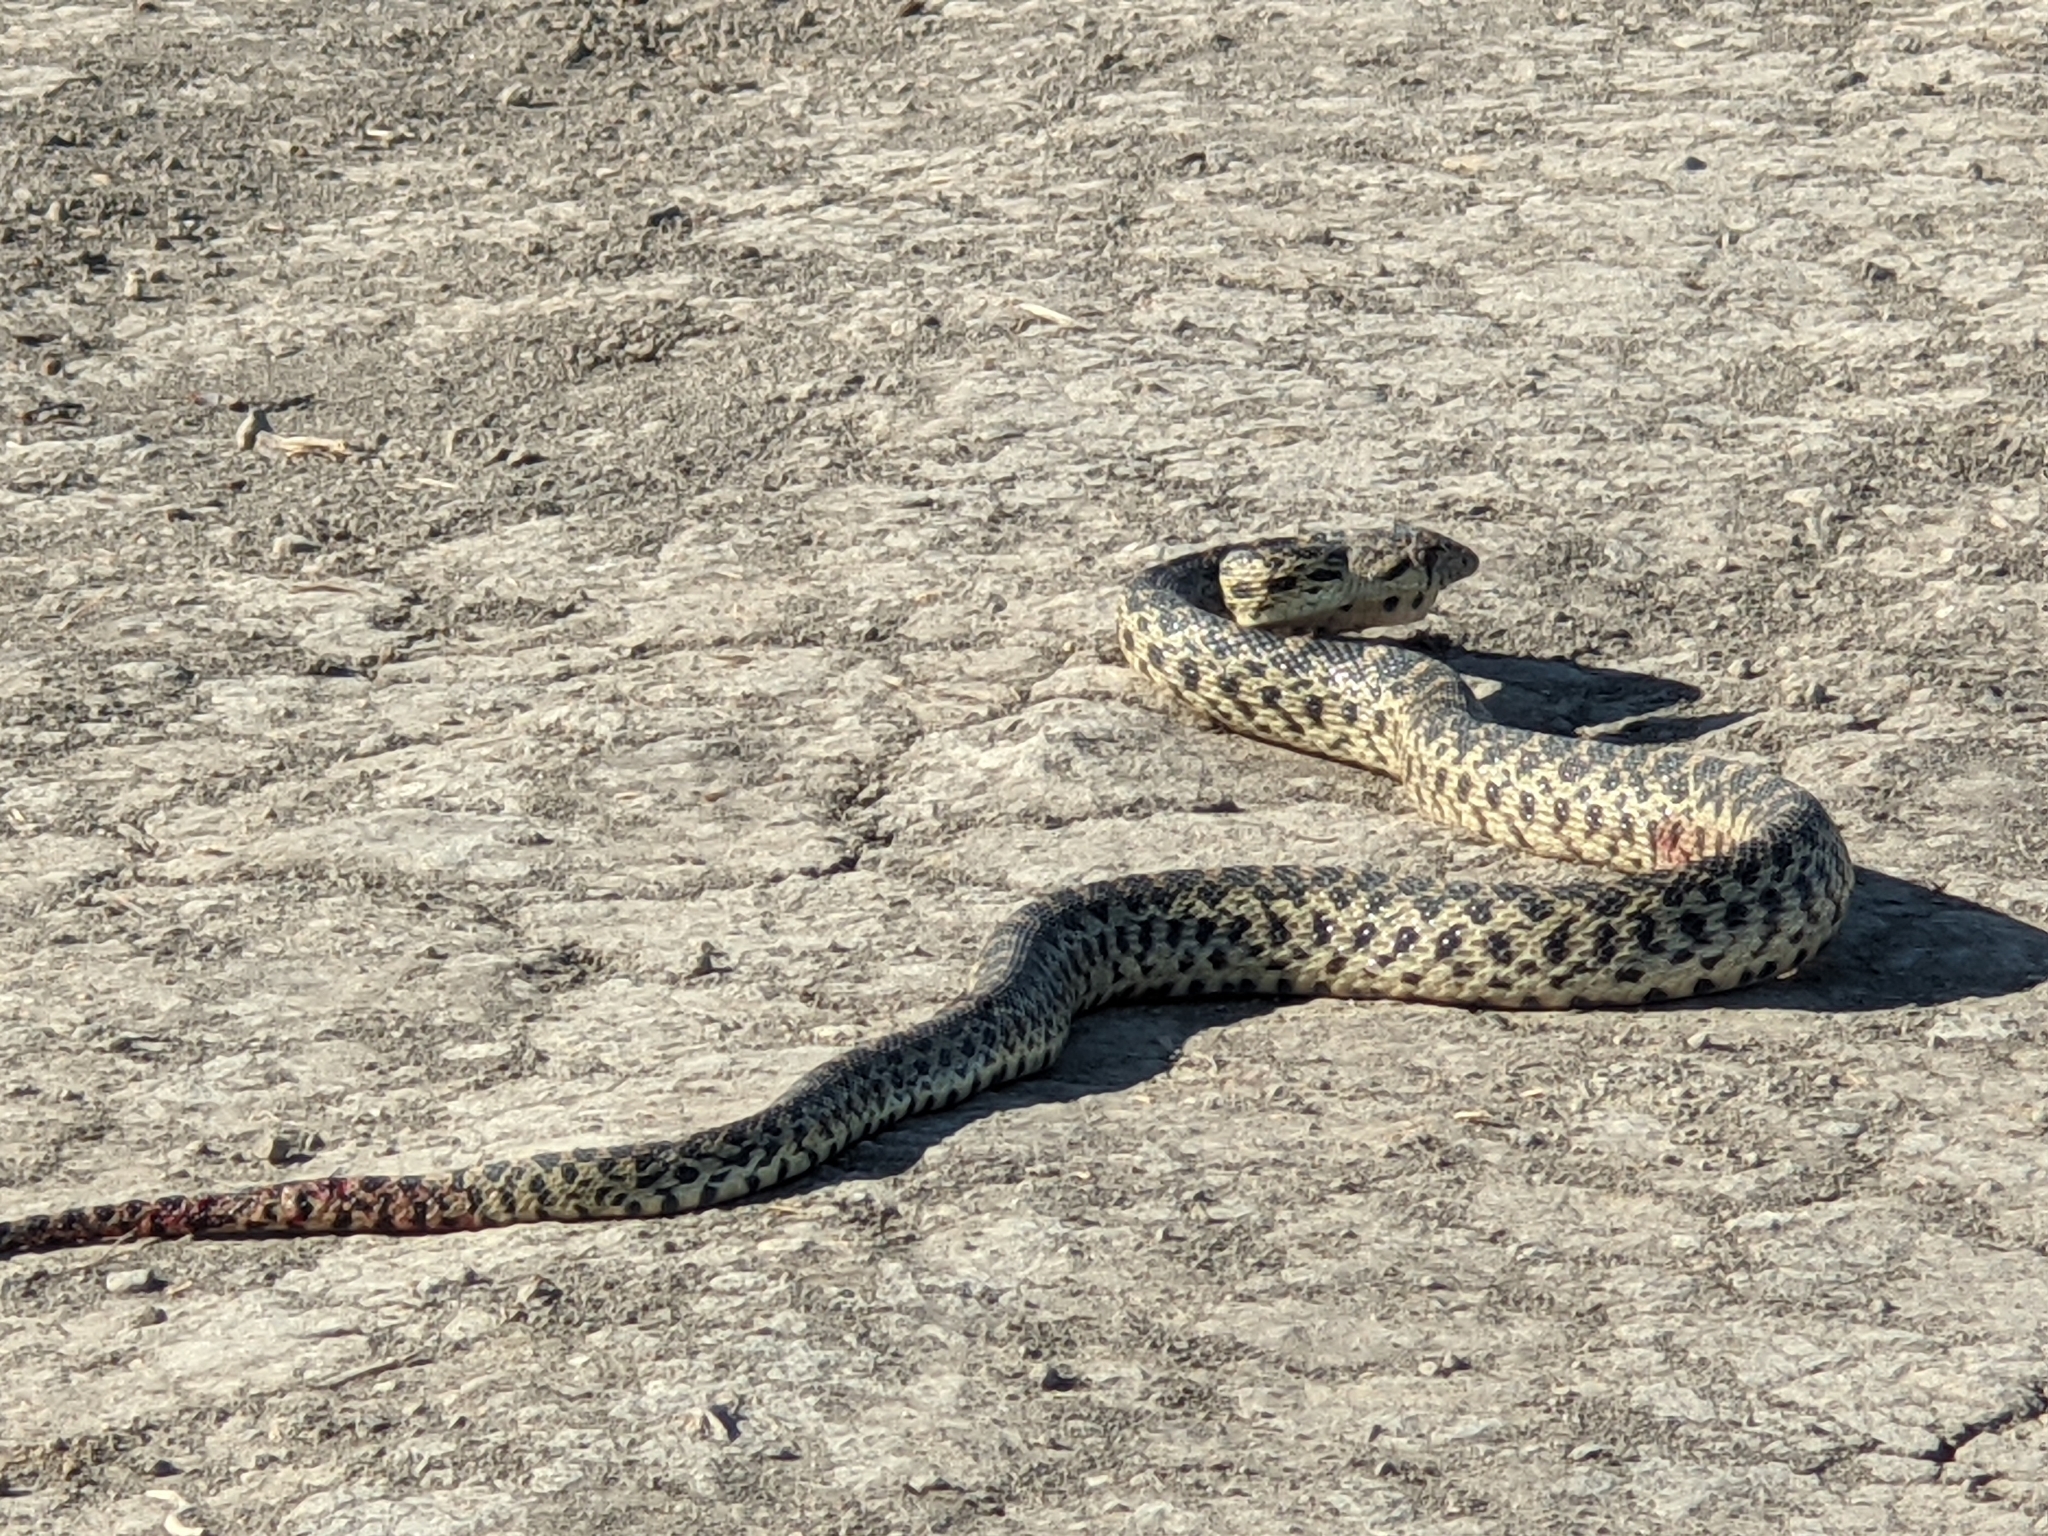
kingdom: Animalia
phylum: Chordata
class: Squamata
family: Colubridae
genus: Pituophis
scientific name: Pituophis catenifer
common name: Gopher snake
